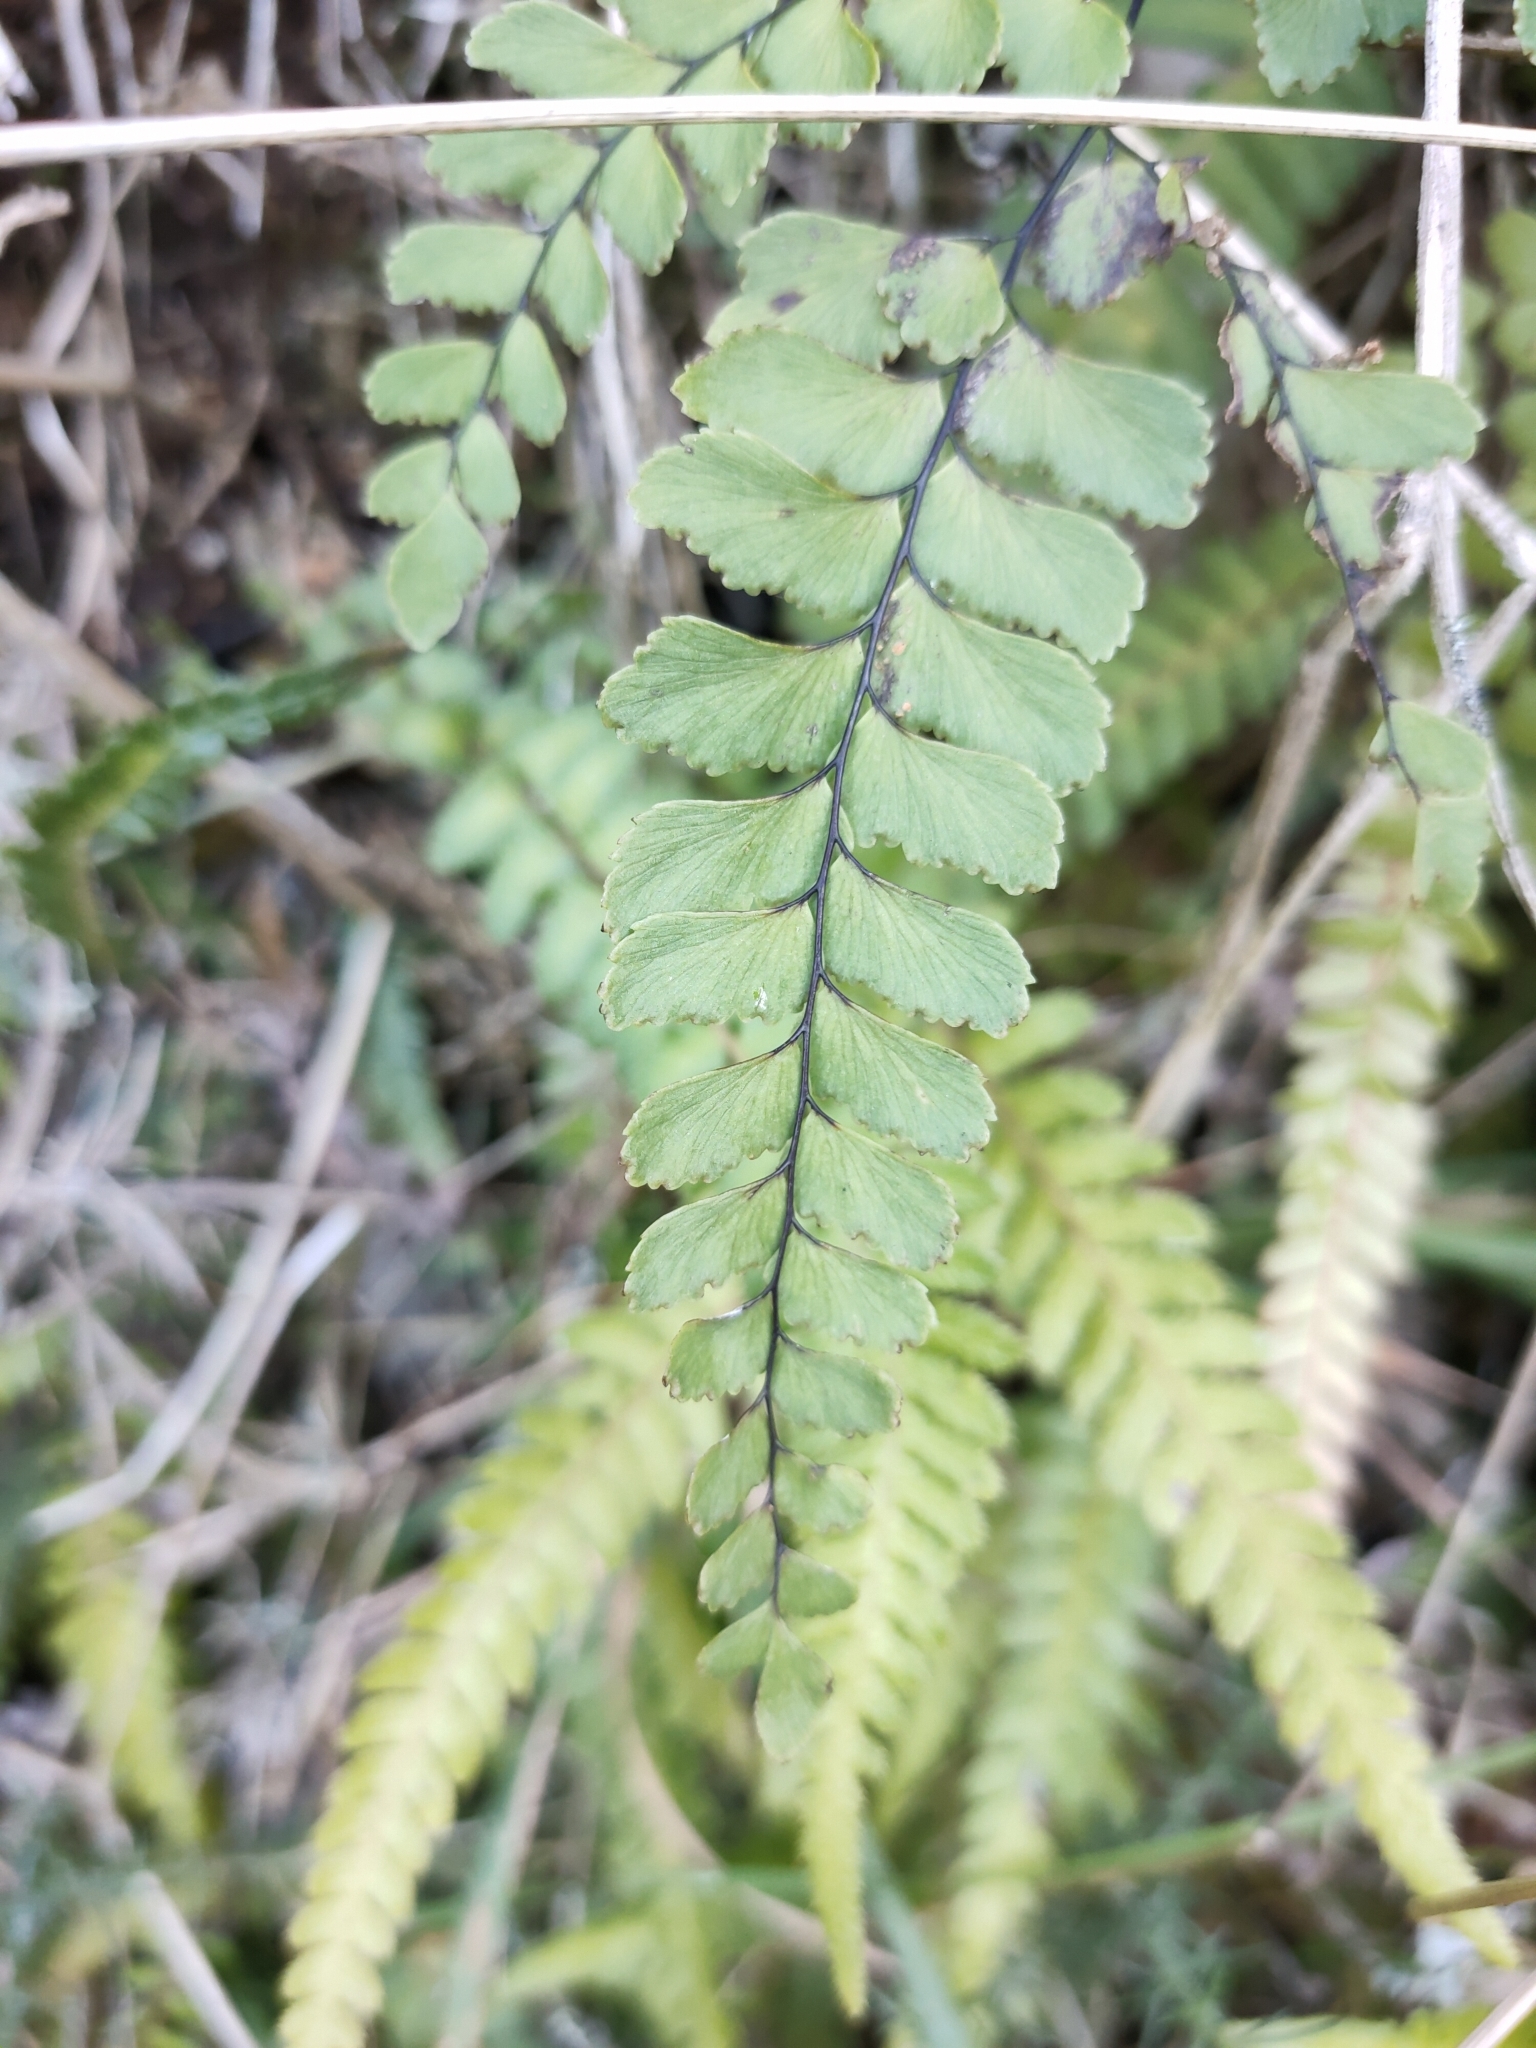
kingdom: Plantae
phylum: Tracheophyta
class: Polypodiopsida
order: Polypodiales
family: Pteridaceae
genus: Adiantum
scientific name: Adiantum cunninghamii
